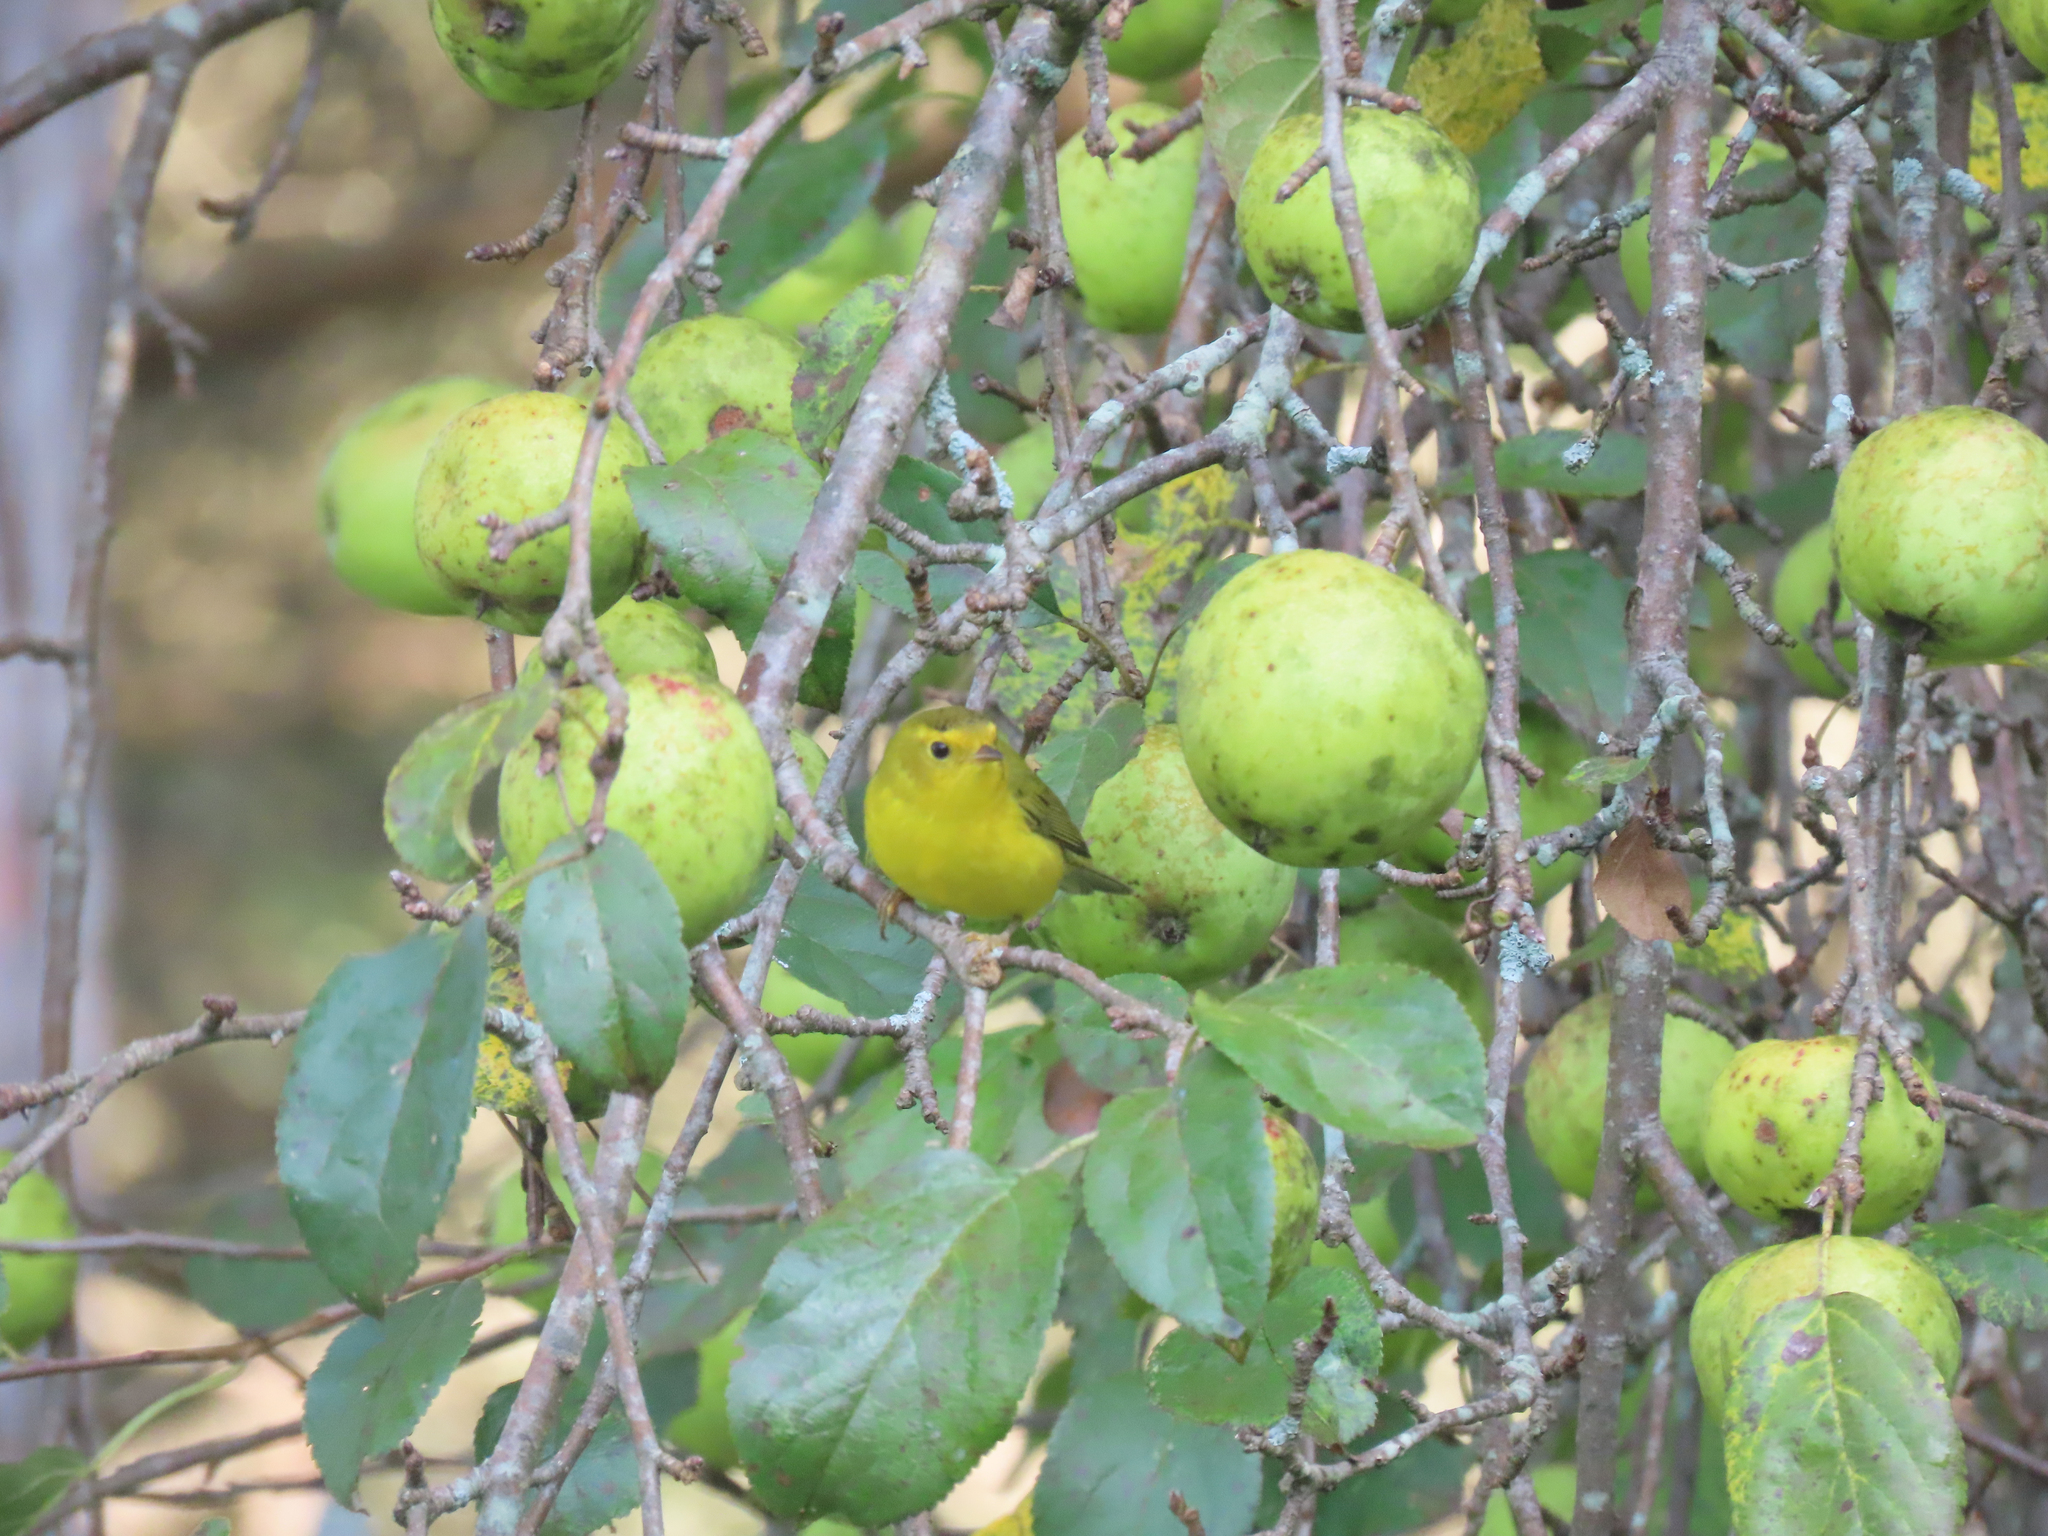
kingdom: Animalia
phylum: Chordata
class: Aves
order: Passeriformes
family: Parulidae
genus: Cardellina
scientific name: Cardellina pusilla
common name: Wilson's warbler
